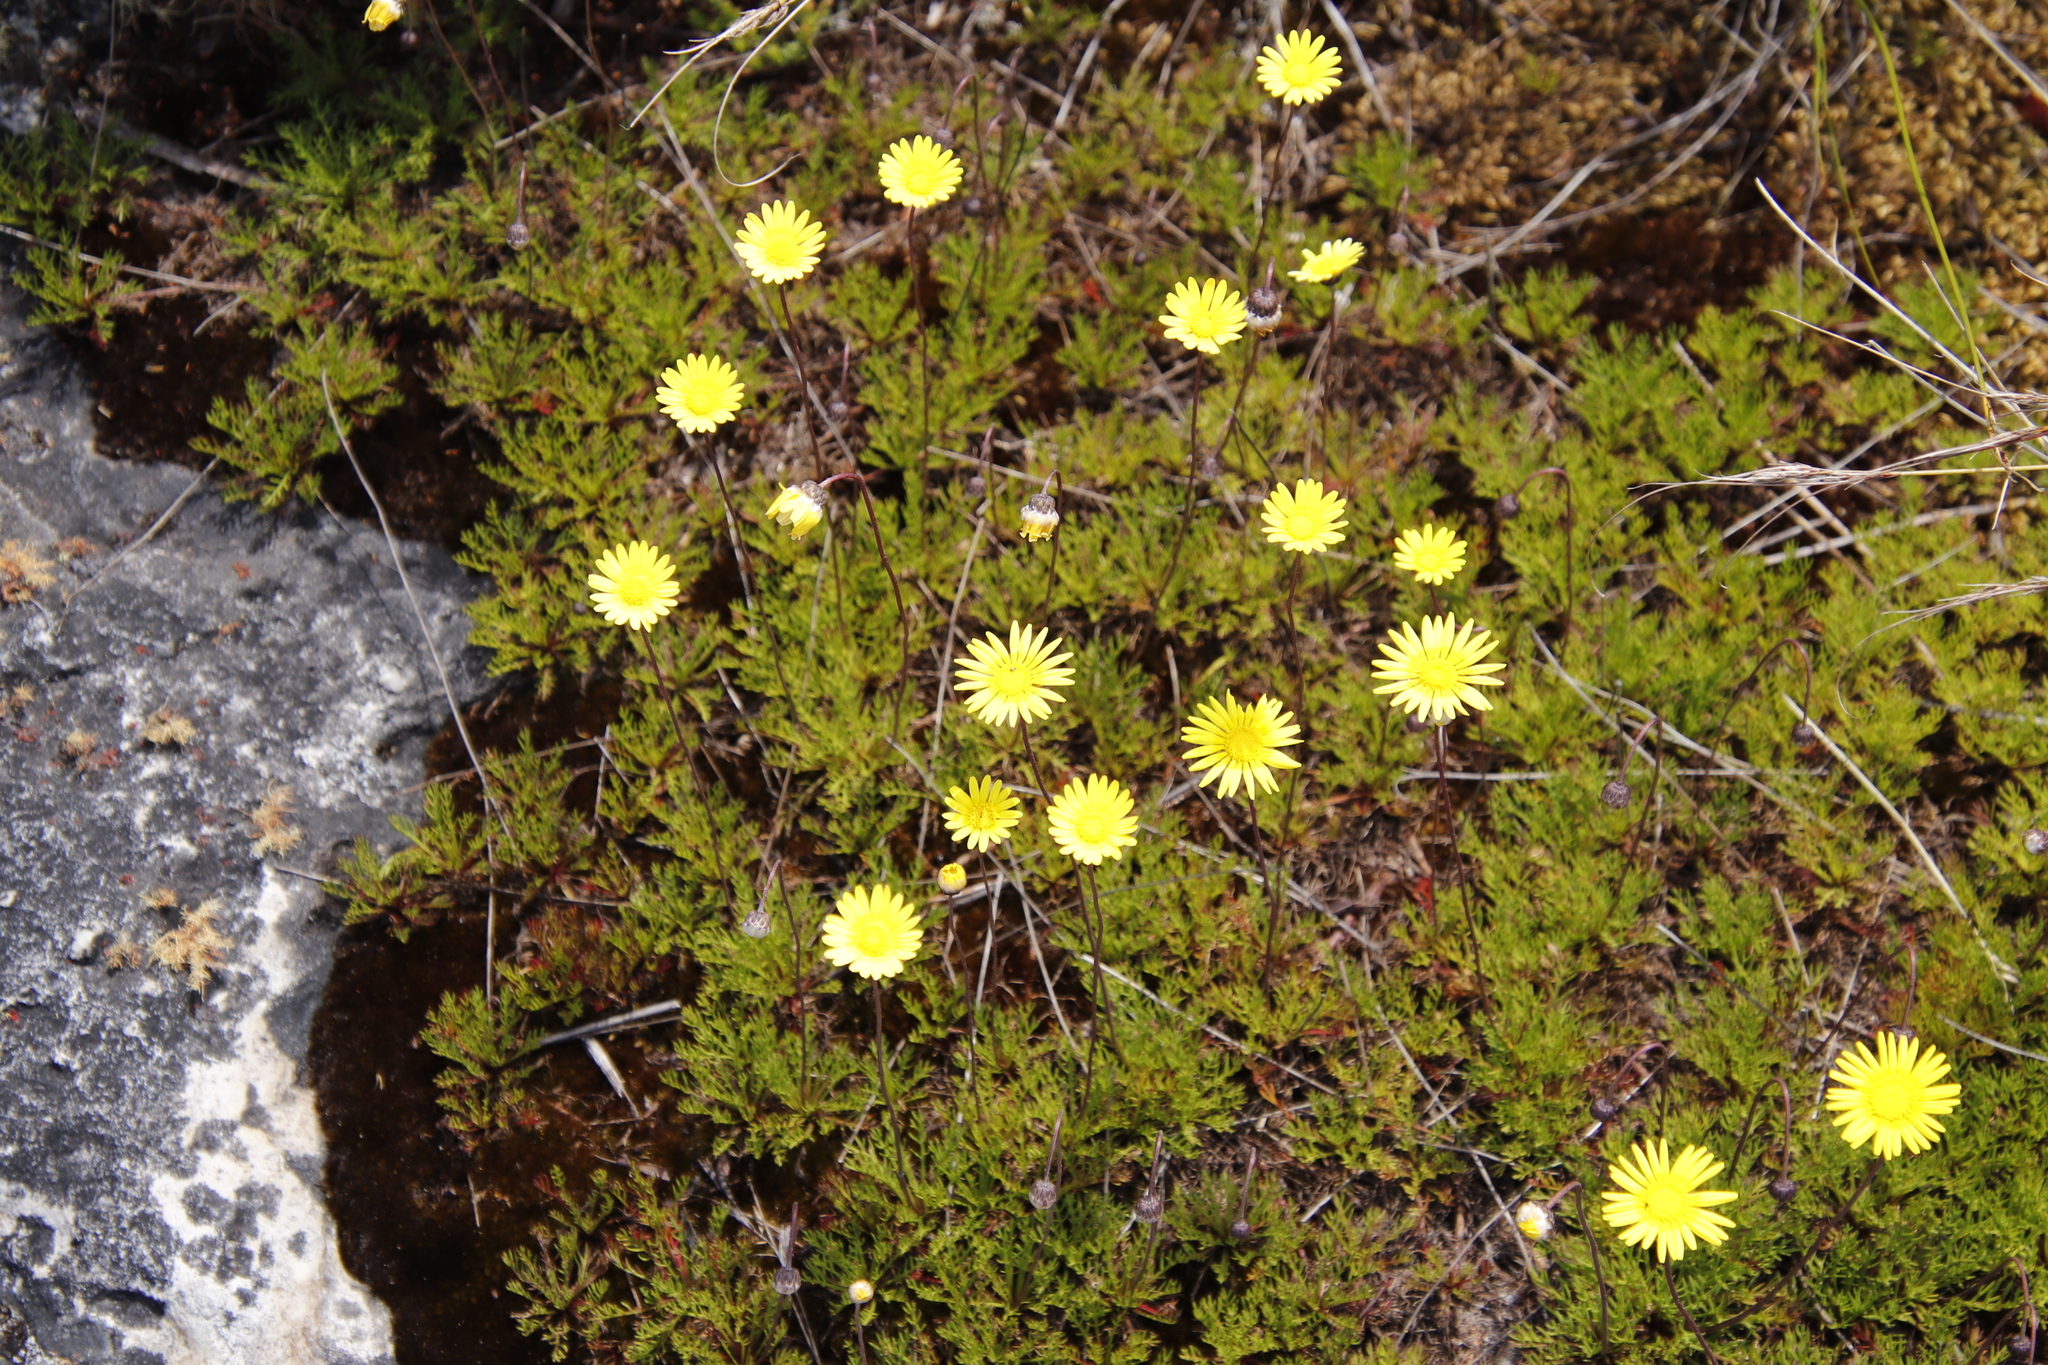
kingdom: Plantae
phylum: Tracheophyta
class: Magnoliopsida
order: Asterales
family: Asteraceae
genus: Ursinia
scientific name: Ursinia nudicaulis
